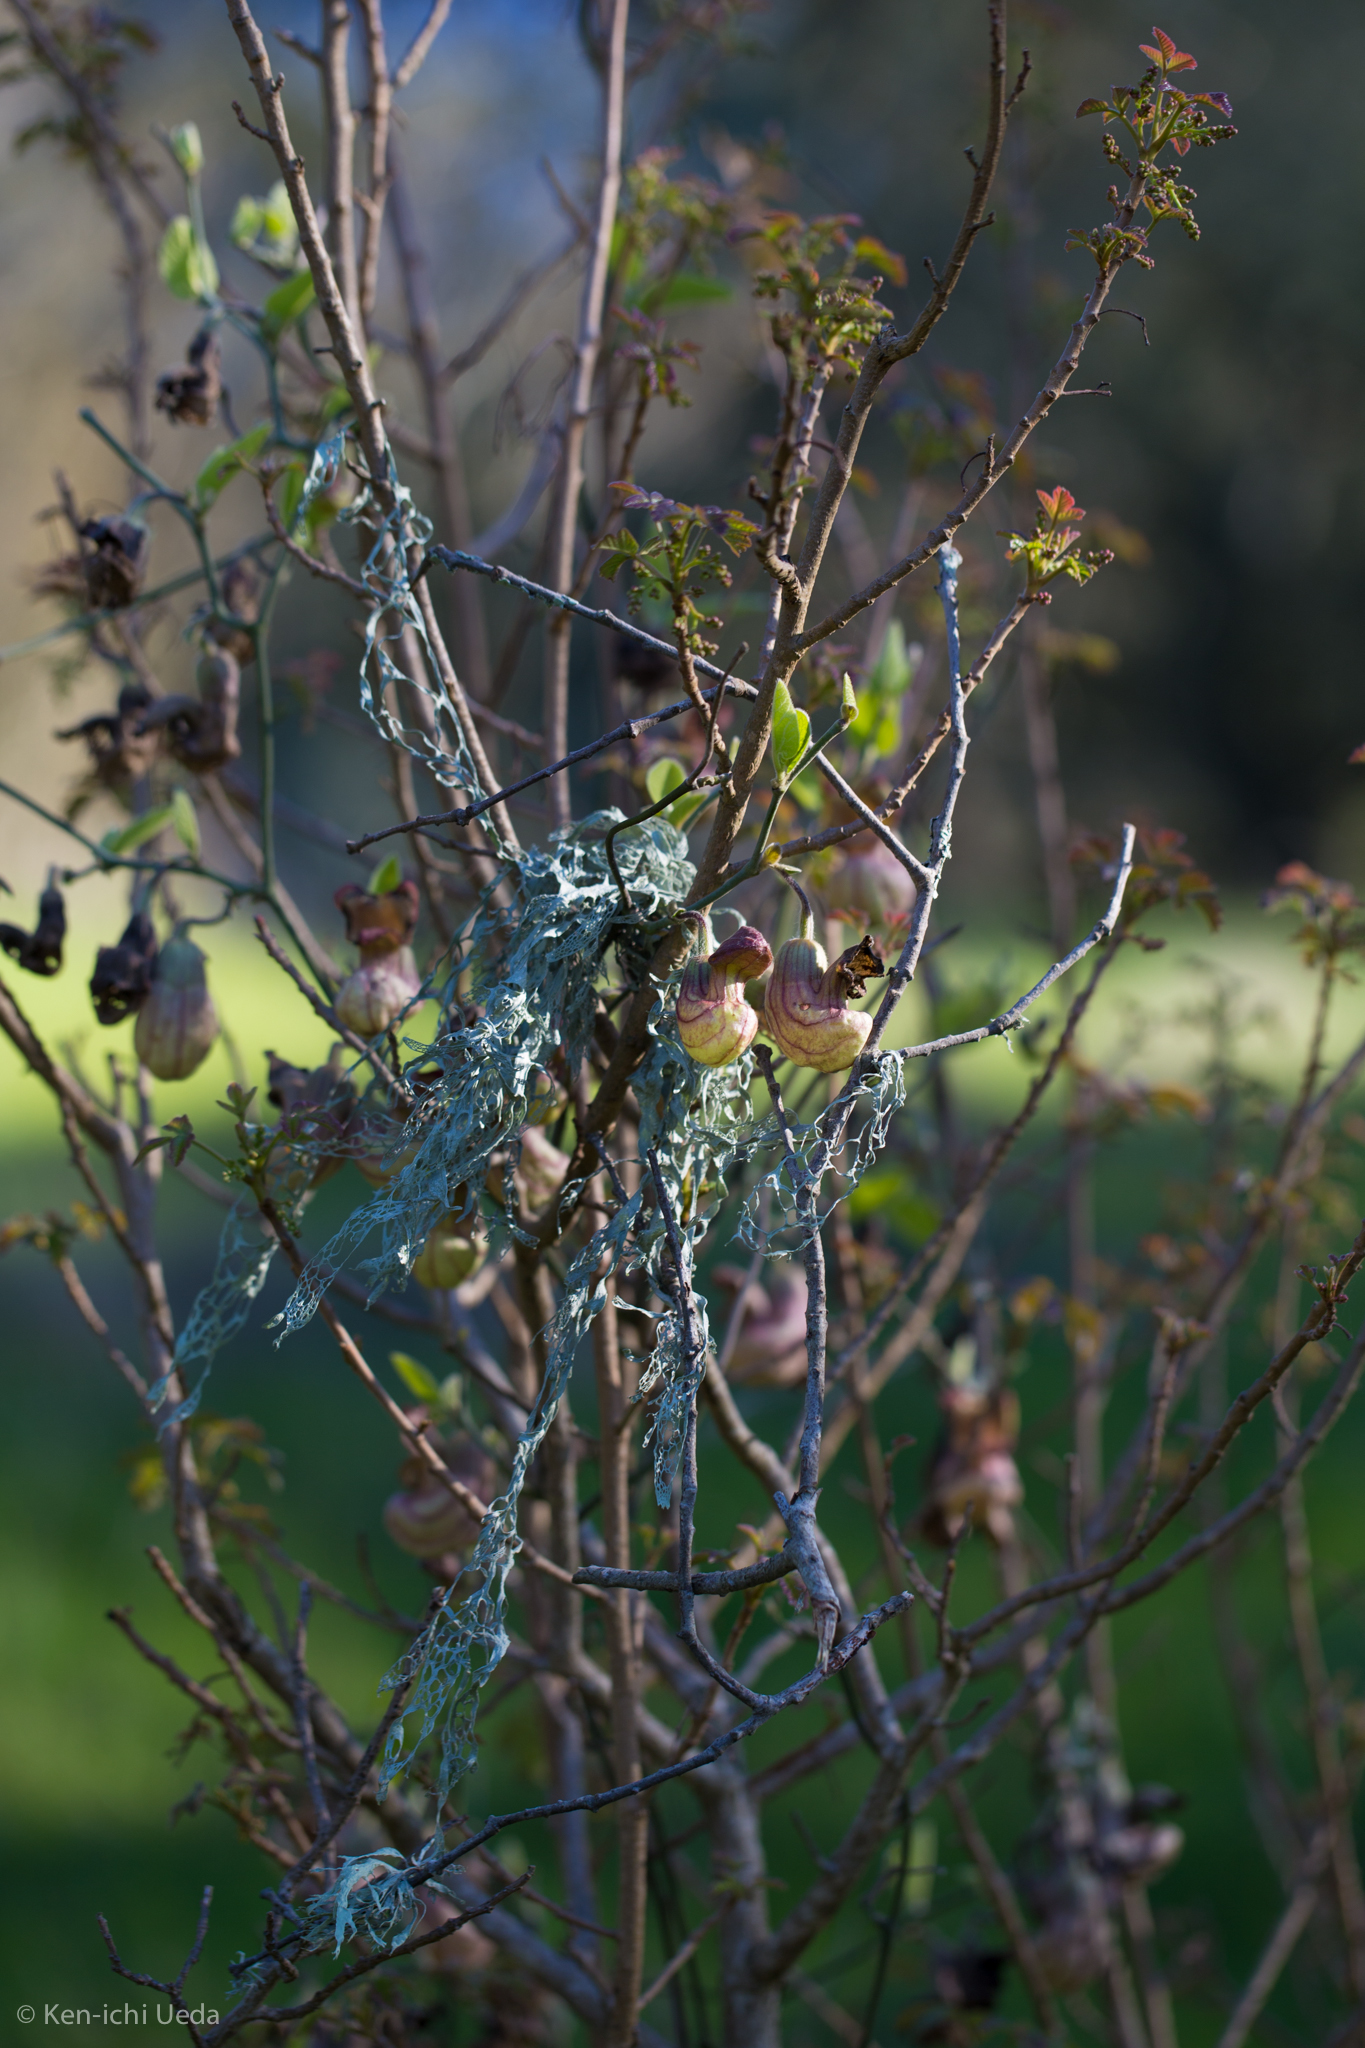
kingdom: Fungi
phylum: Ascomycota
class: Lecanoromycetes
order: Lecanorales
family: Ramalinaceae
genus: Ramalina
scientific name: Ramalina menziesii
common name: Lace lichen
